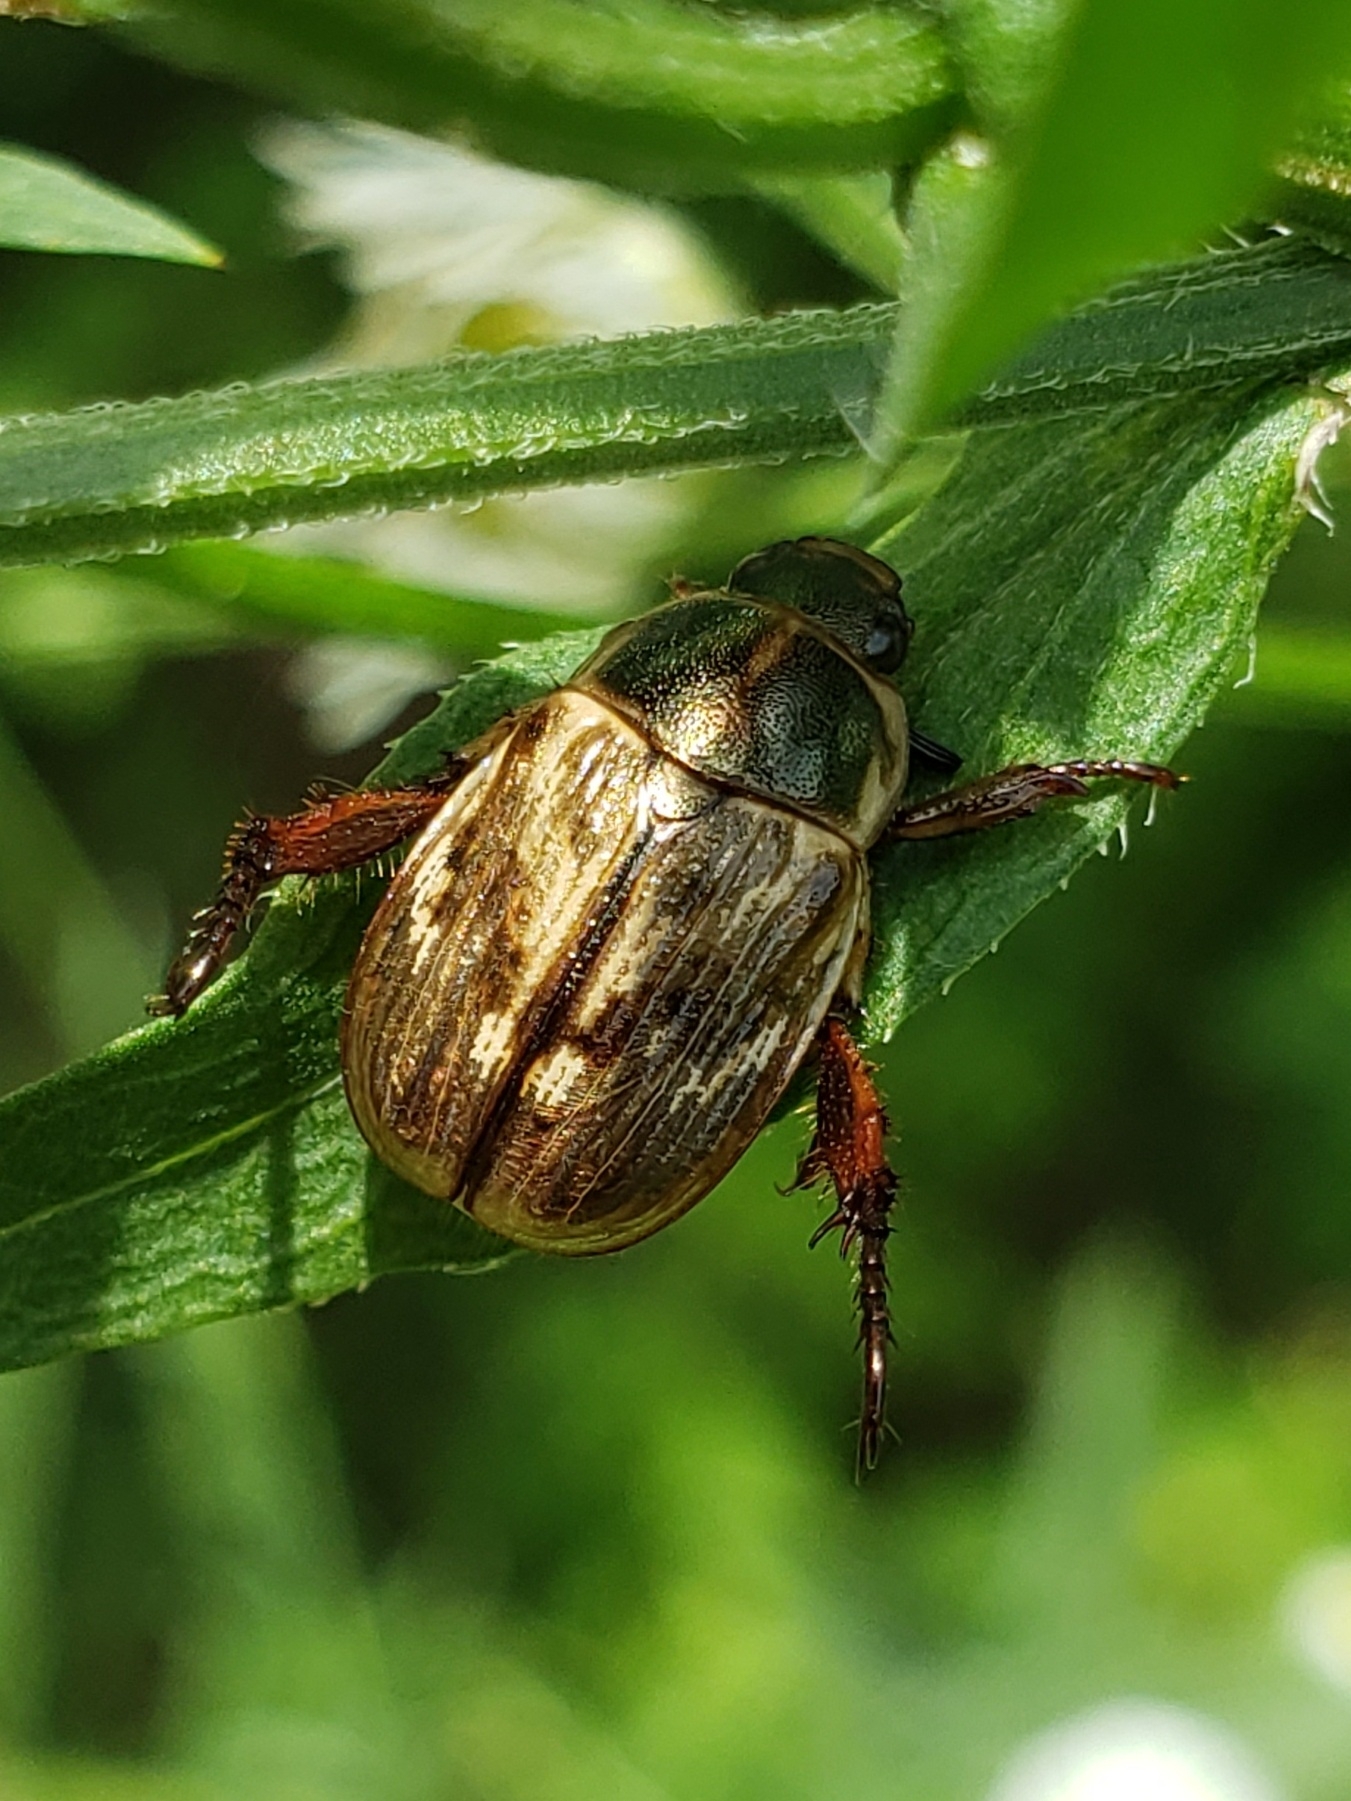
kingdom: Animalia
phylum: Arthropoda
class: Insecta
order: Coleoptera
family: Scarabaeidae
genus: Exomala
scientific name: Exomala orientalis
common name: Oriental beetle
